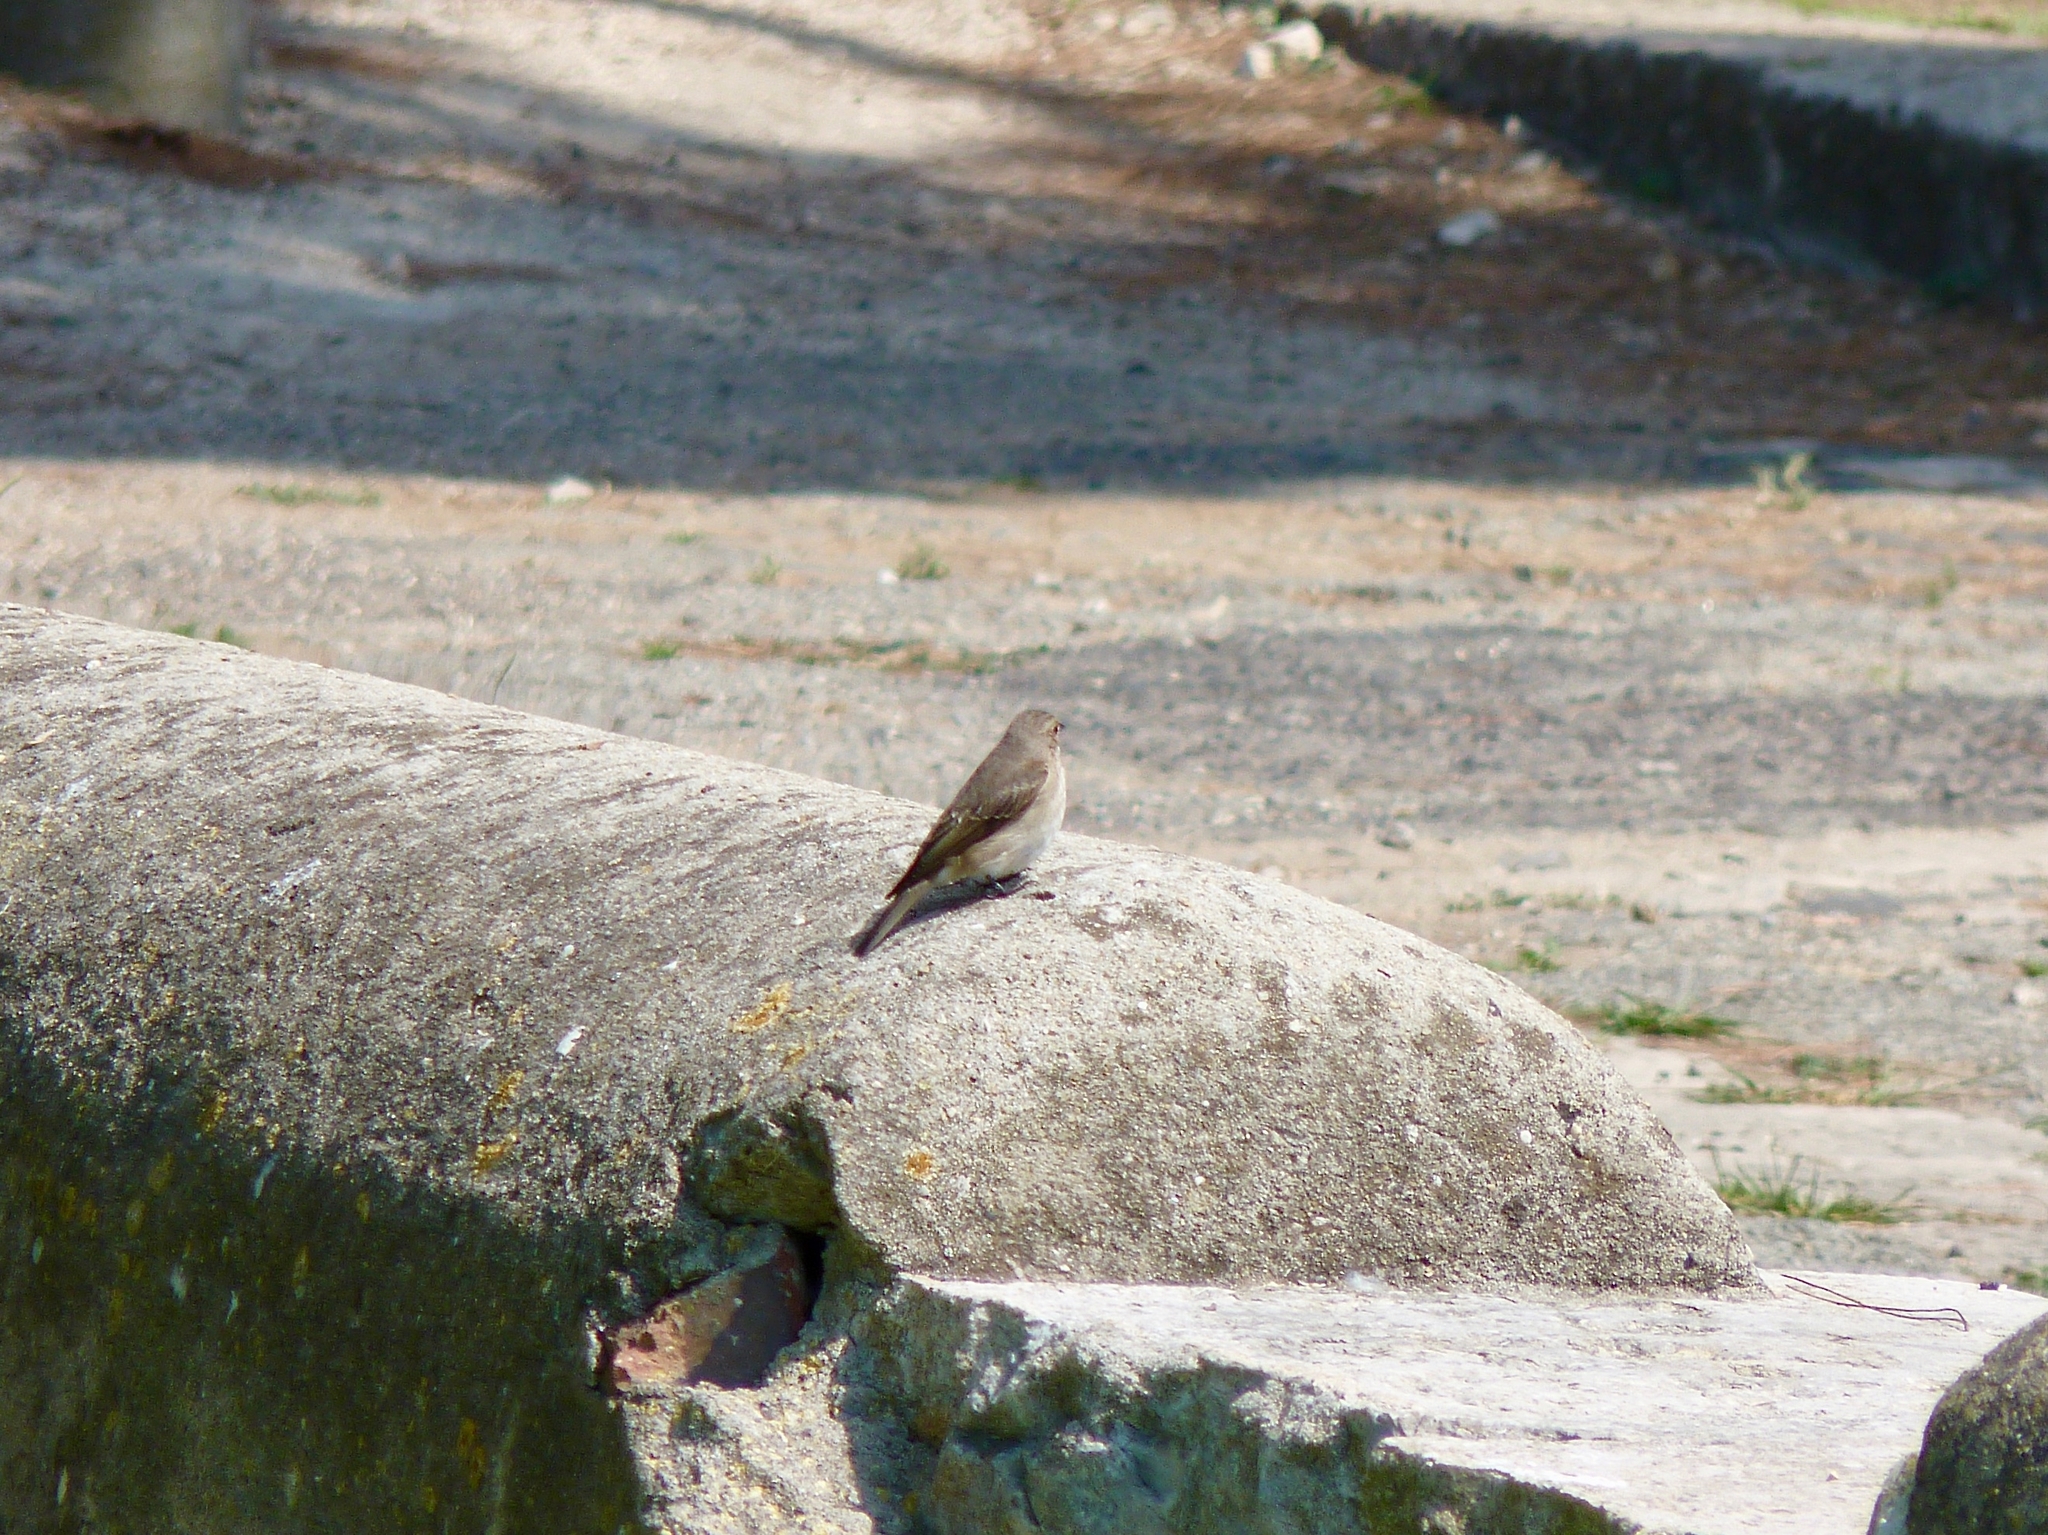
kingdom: Animalia
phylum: Chordata
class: Aves
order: Passeriformes
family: Muscicapidae
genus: Muscicapa
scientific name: Muscicapa striata
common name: Spotted flycatcher
